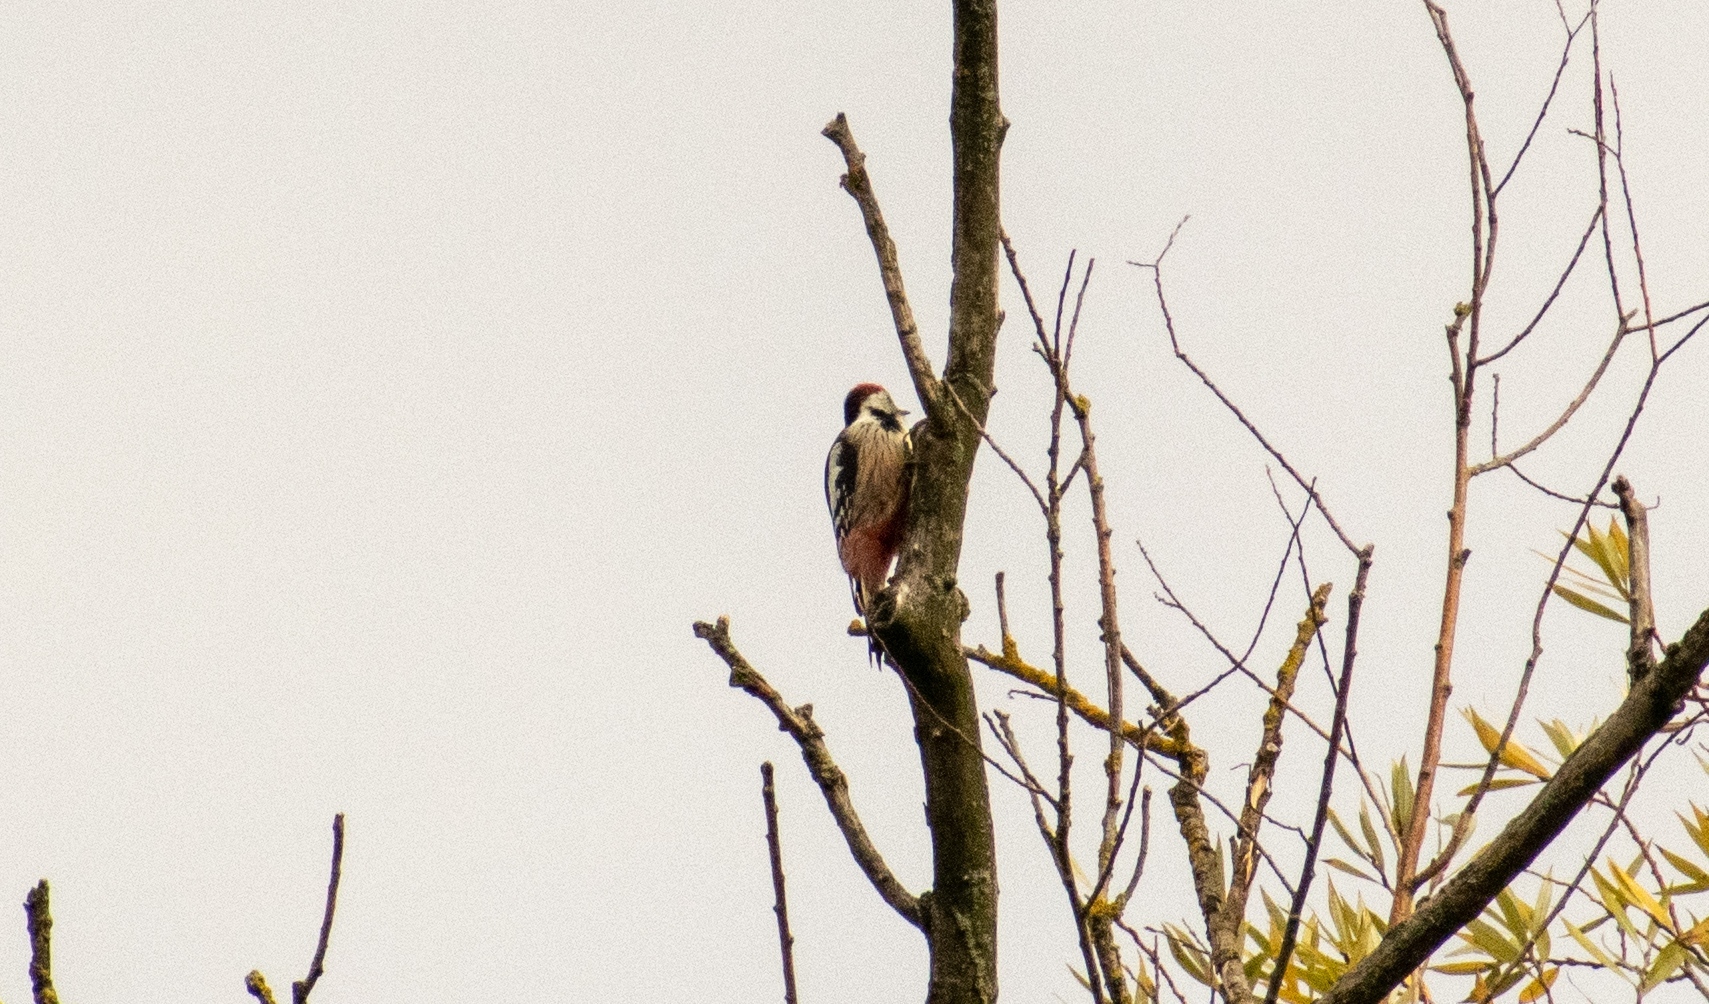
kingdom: Animalia
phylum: Chordata
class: Aves
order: Piciformes
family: Picidae
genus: Dendrocoptes
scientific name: Dendrocoptes medius
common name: Middle spotted woodpecker
